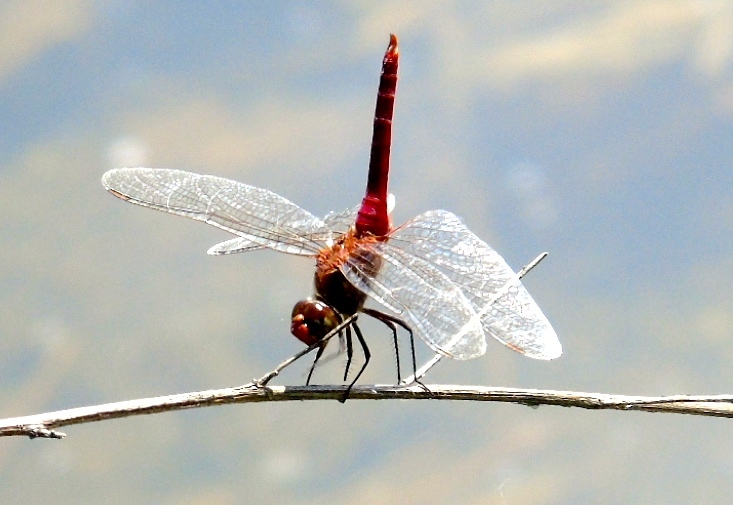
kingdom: Animalia
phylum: Arthropoda
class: Insecta
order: Odonata
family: Libellulidae
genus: Brachymesia
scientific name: Brachymesia furcata
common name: Red-taled pennant
